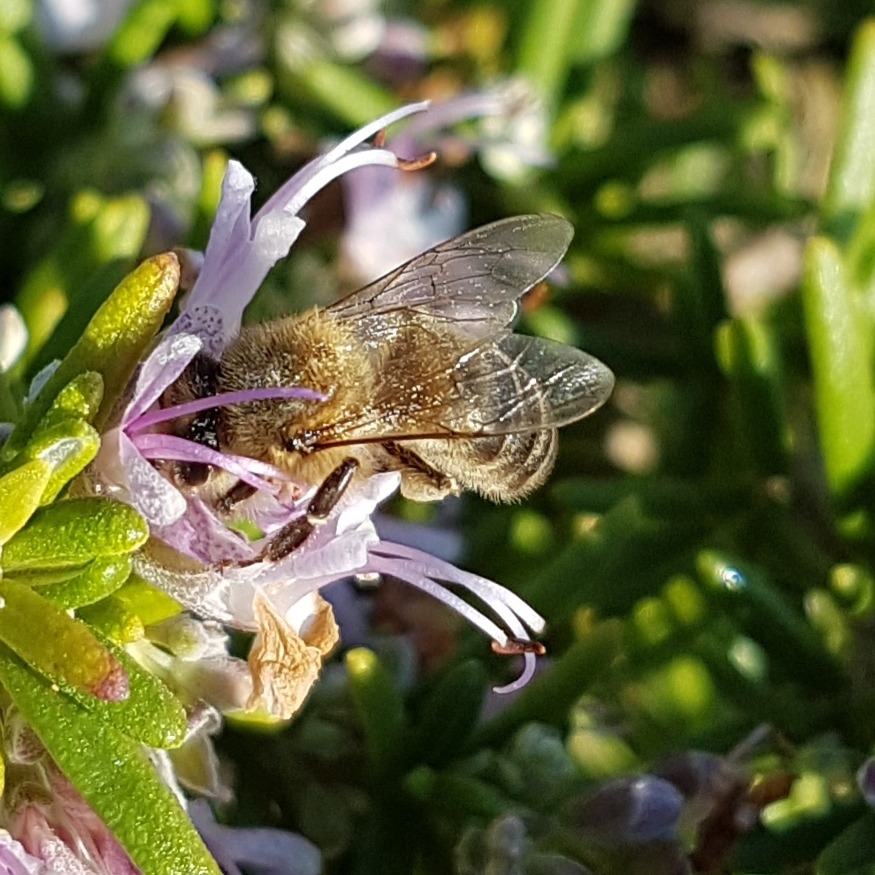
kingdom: Animalia
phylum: Arthropoda
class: Insecta
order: Hymenoptera
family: Apidae
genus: Apis
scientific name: Apis mellifera
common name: Honey bee
